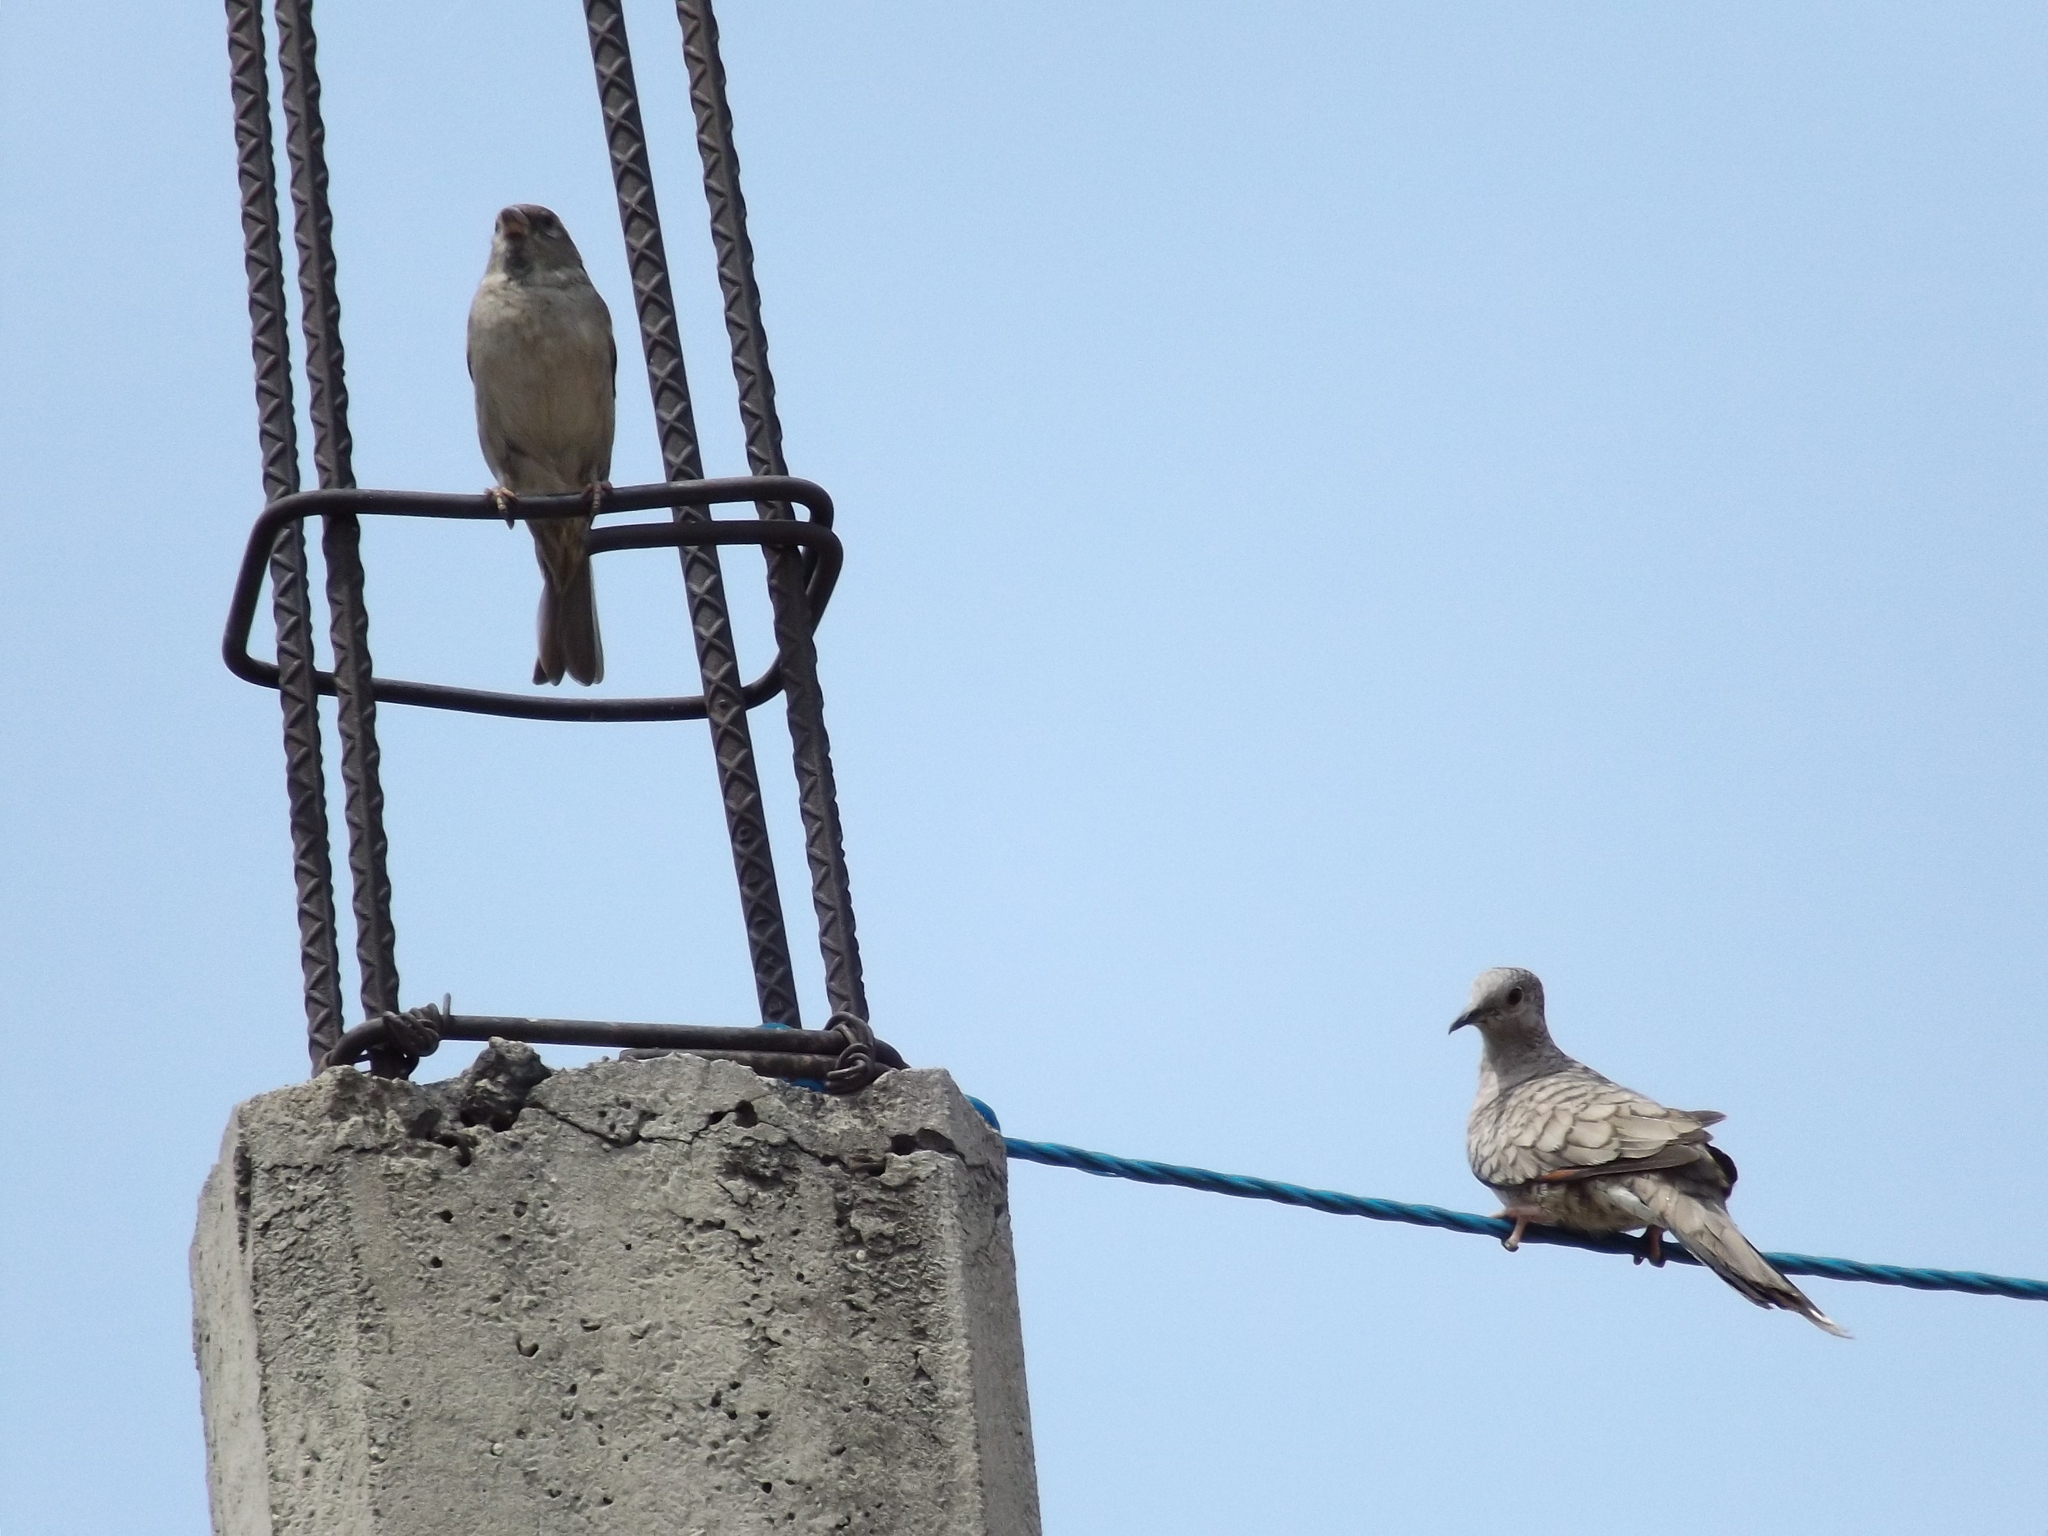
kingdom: Animalia
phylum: Chordata
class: Aves
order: Columbiformes
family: Columbidae
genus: Columbina
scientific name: Columbina inca
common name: Inca dove
